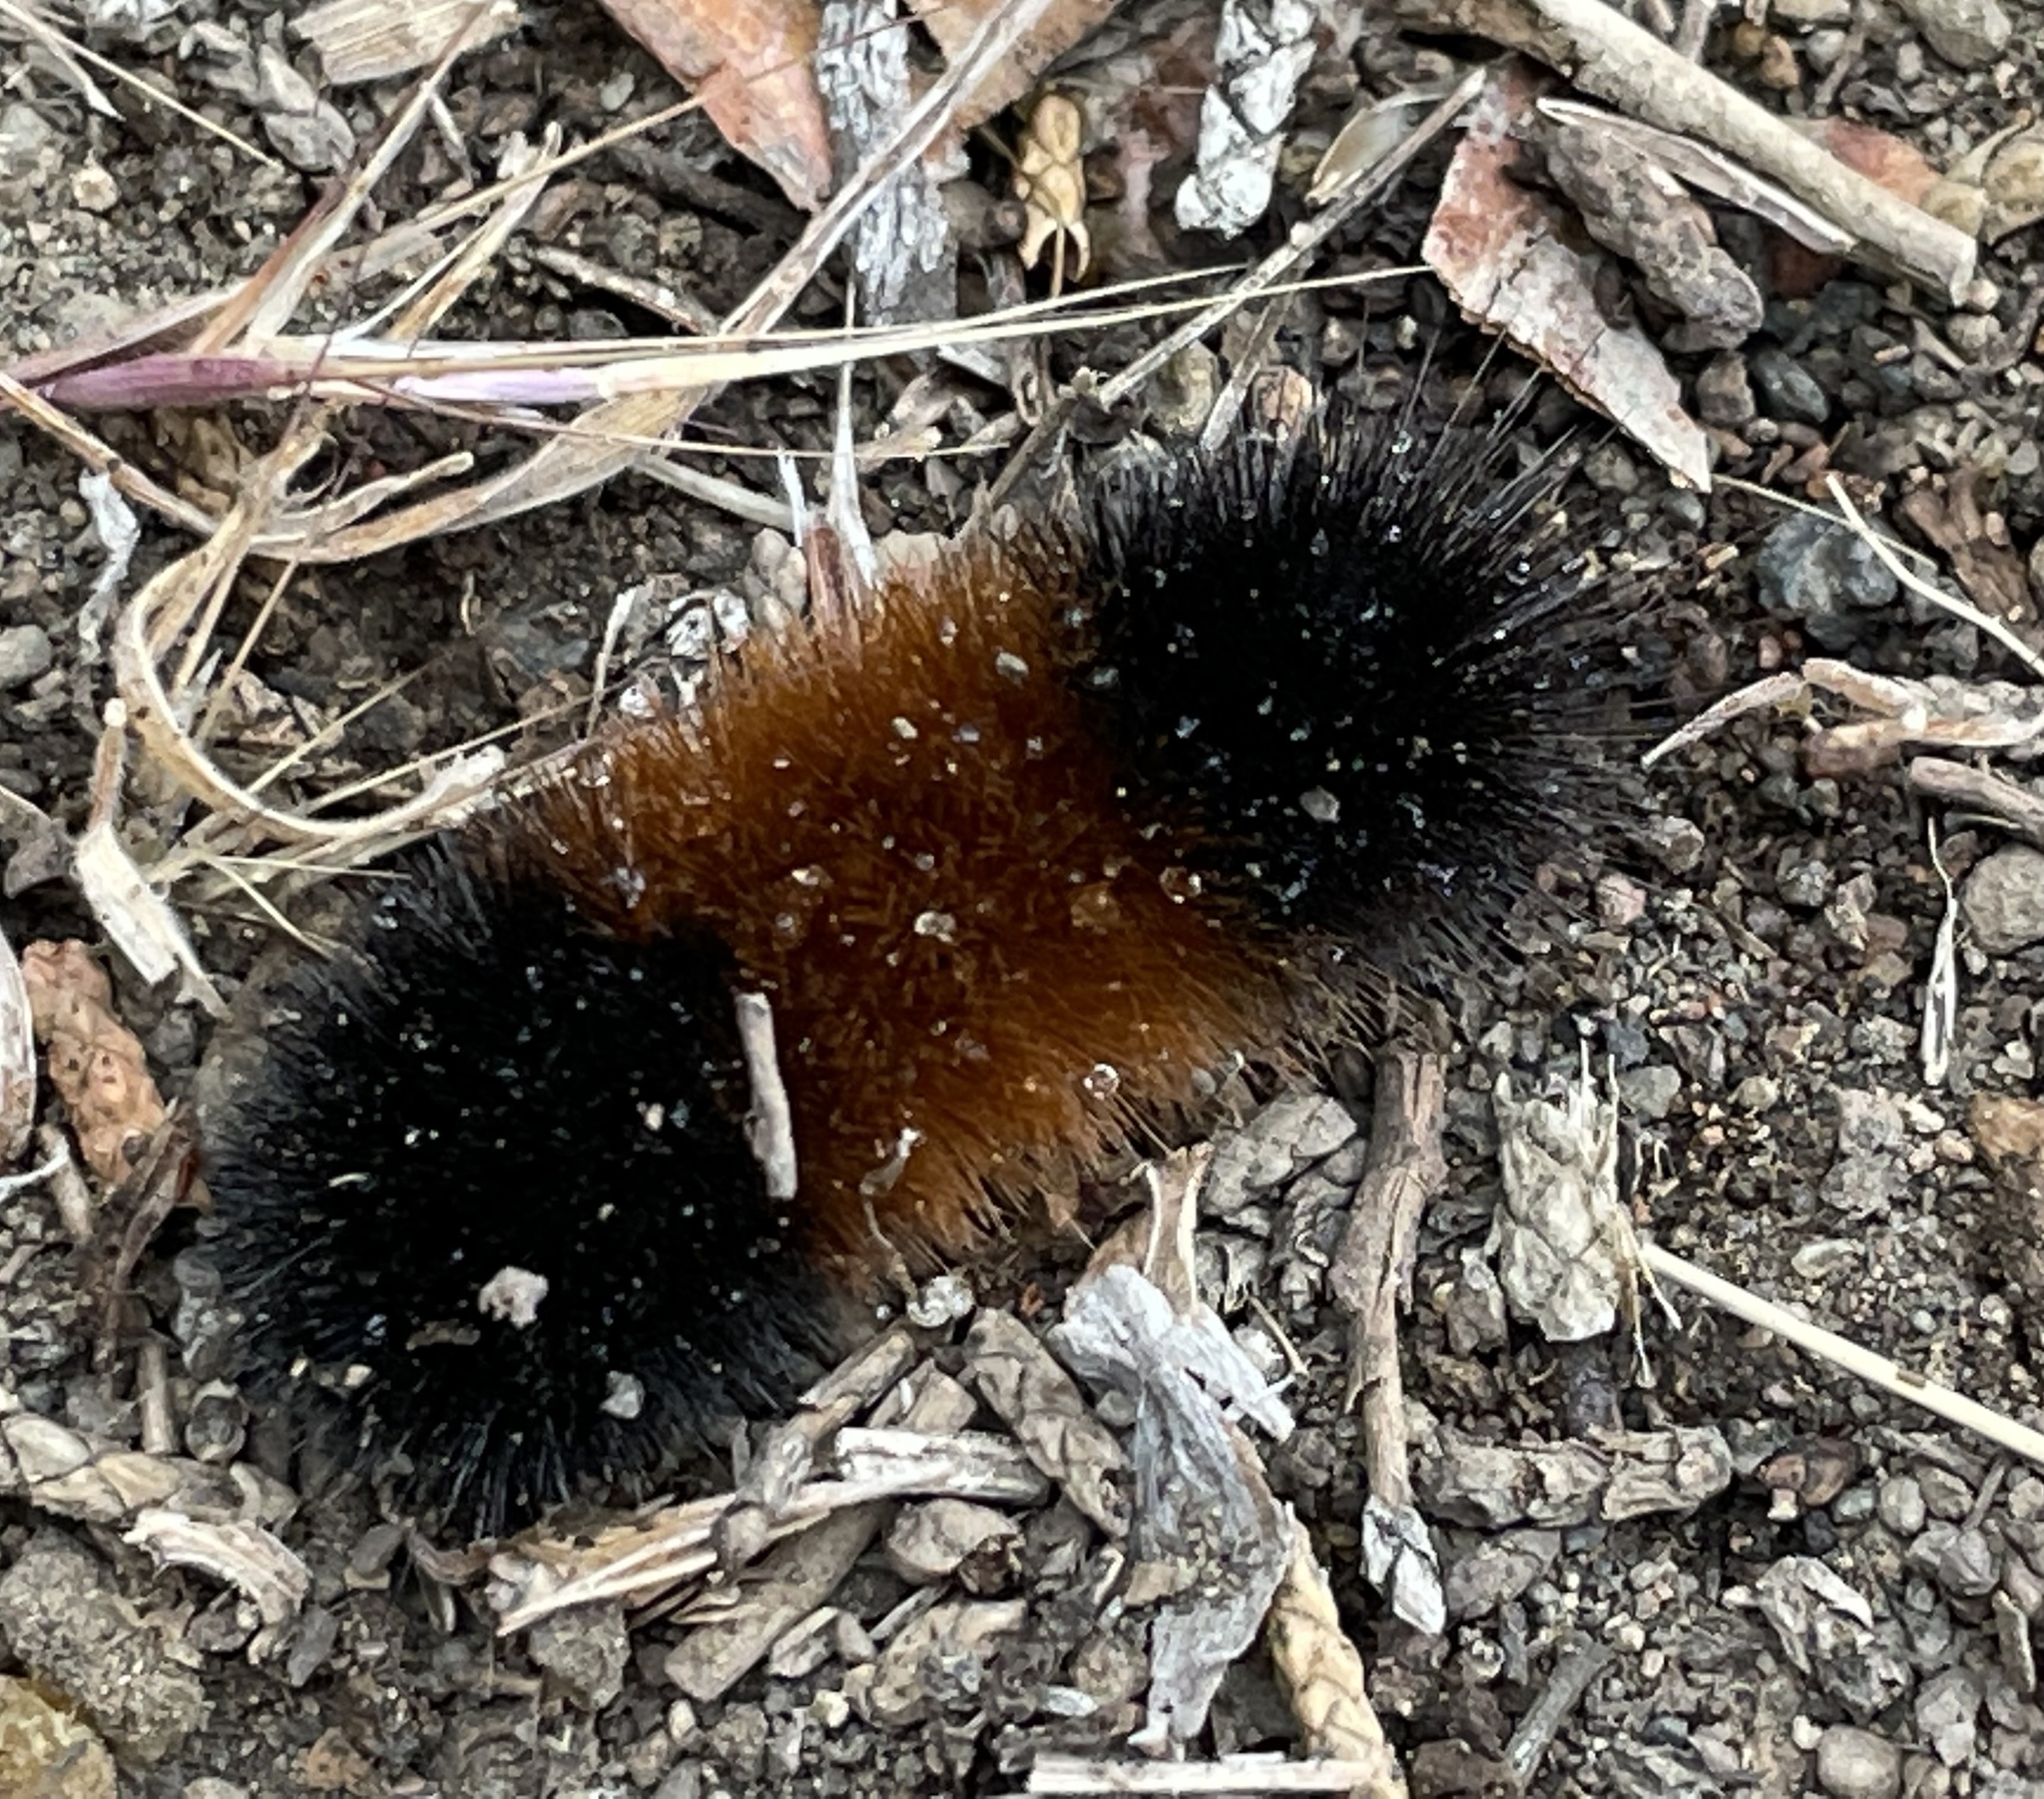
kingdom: Animalia
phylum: Arthropoda
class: Insecta
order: Lepidoptera
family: Erebidae
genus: Pyrrharctia
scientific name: Pyrrharctia isabella
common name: Isabella tiger moth
